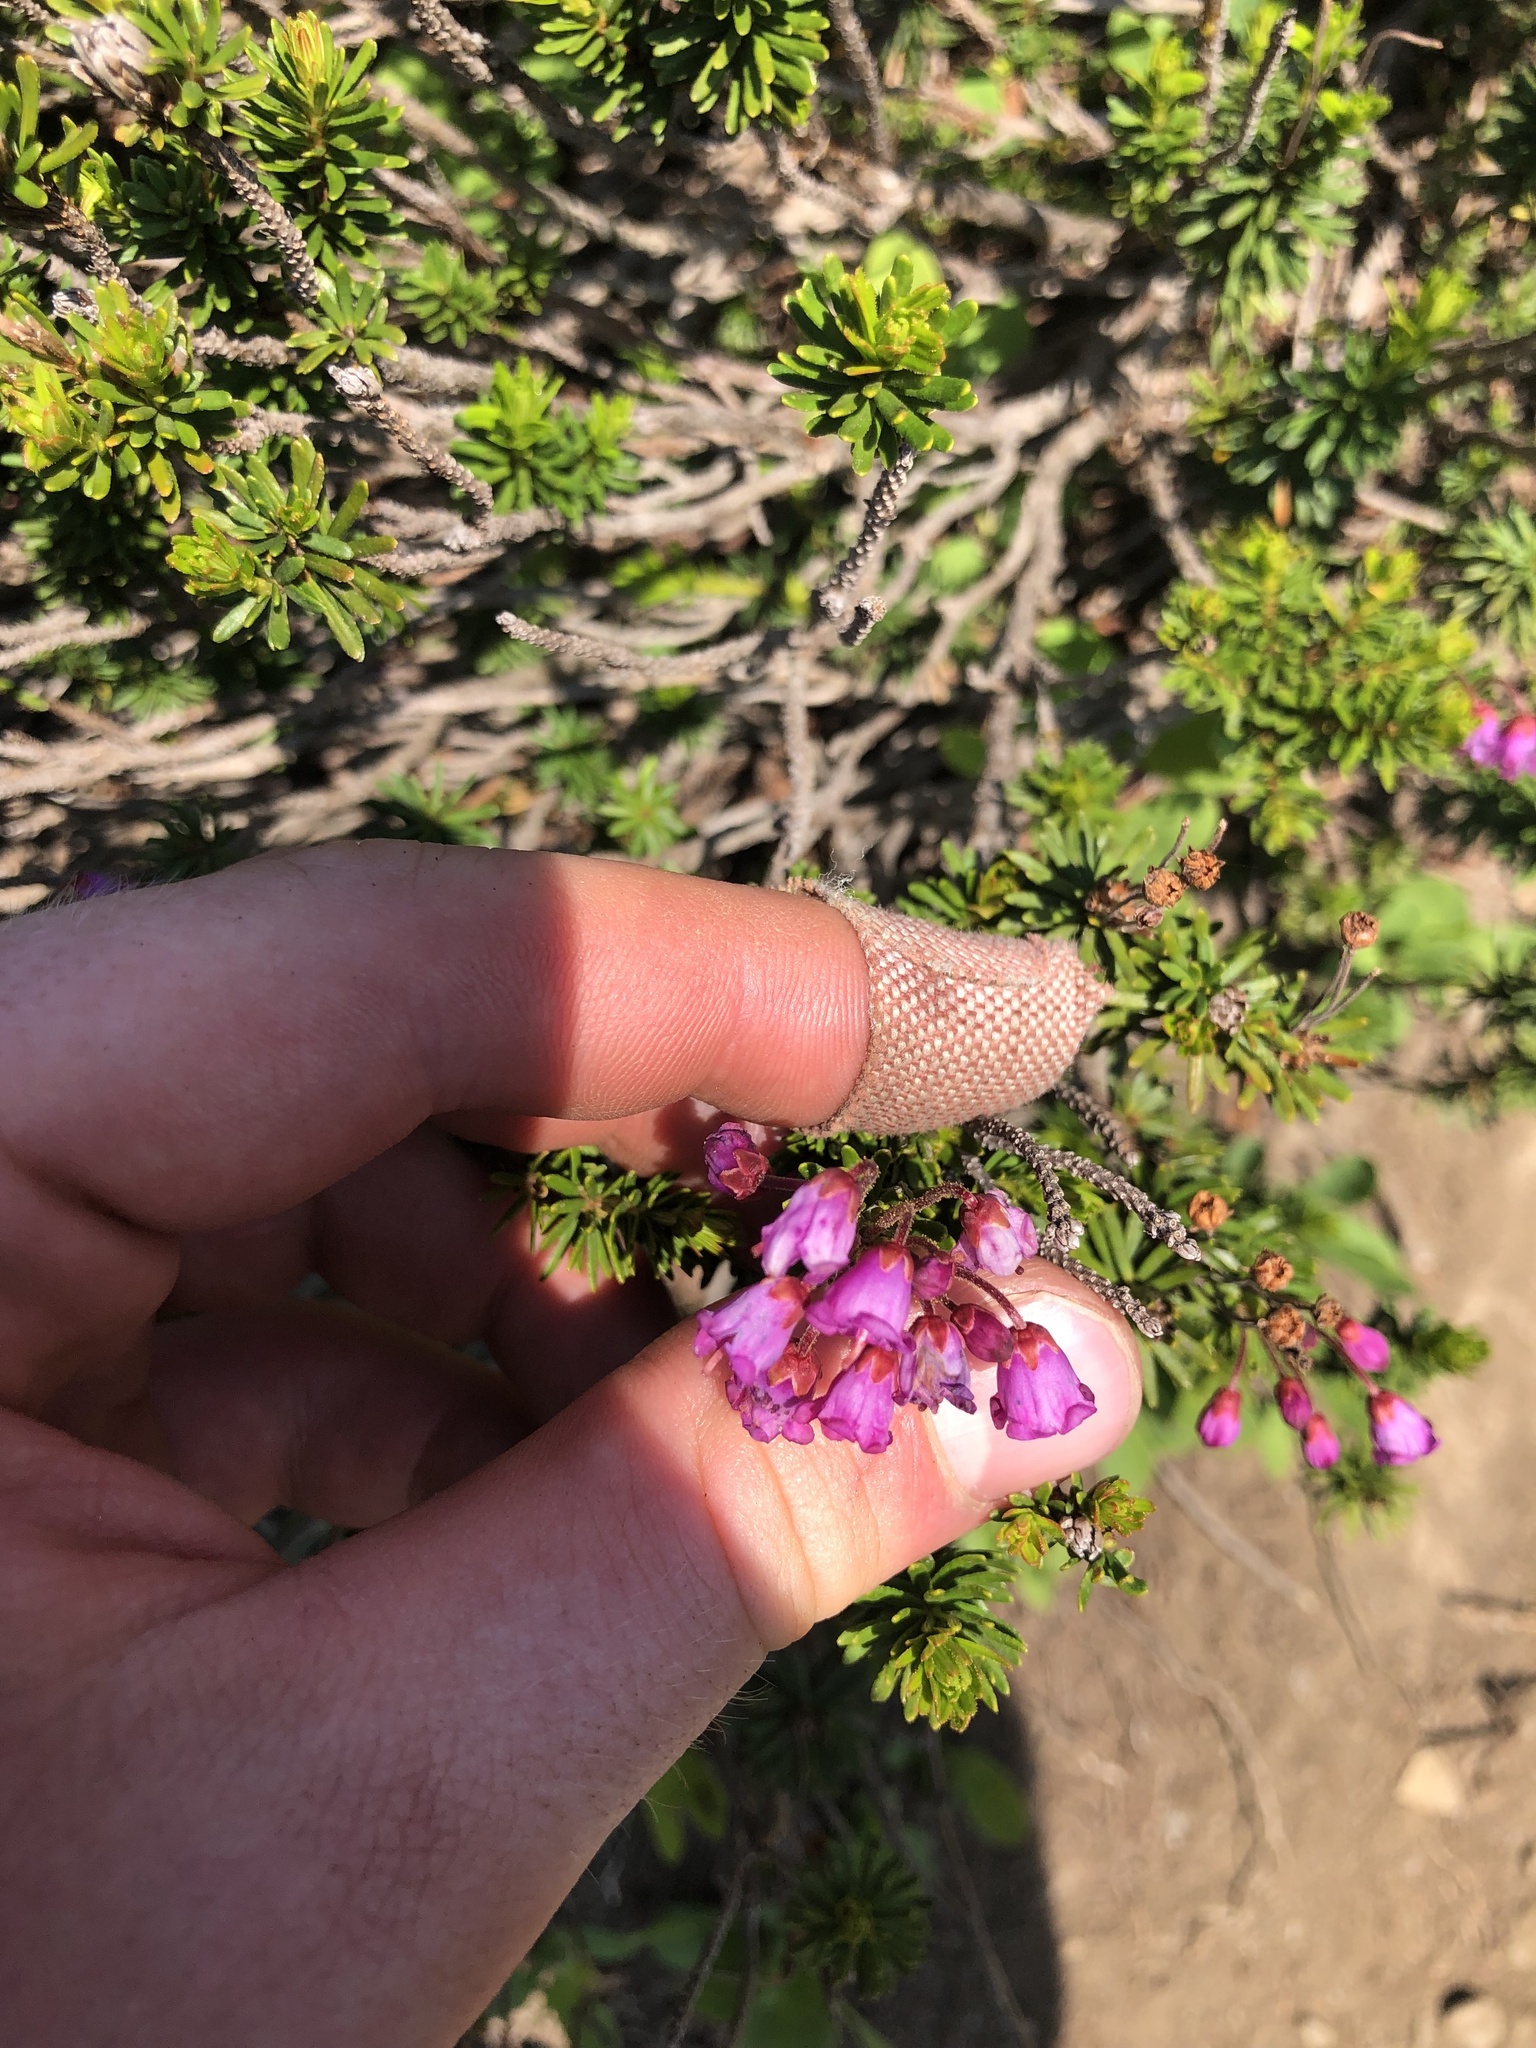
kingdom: Plantae
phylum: Tracheophyta
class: Magnoliopsida
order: Ericales
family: Ericaceae
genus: Phyllodoce
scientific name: Phyllodoce empetriformis
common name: Pink mountain heather
